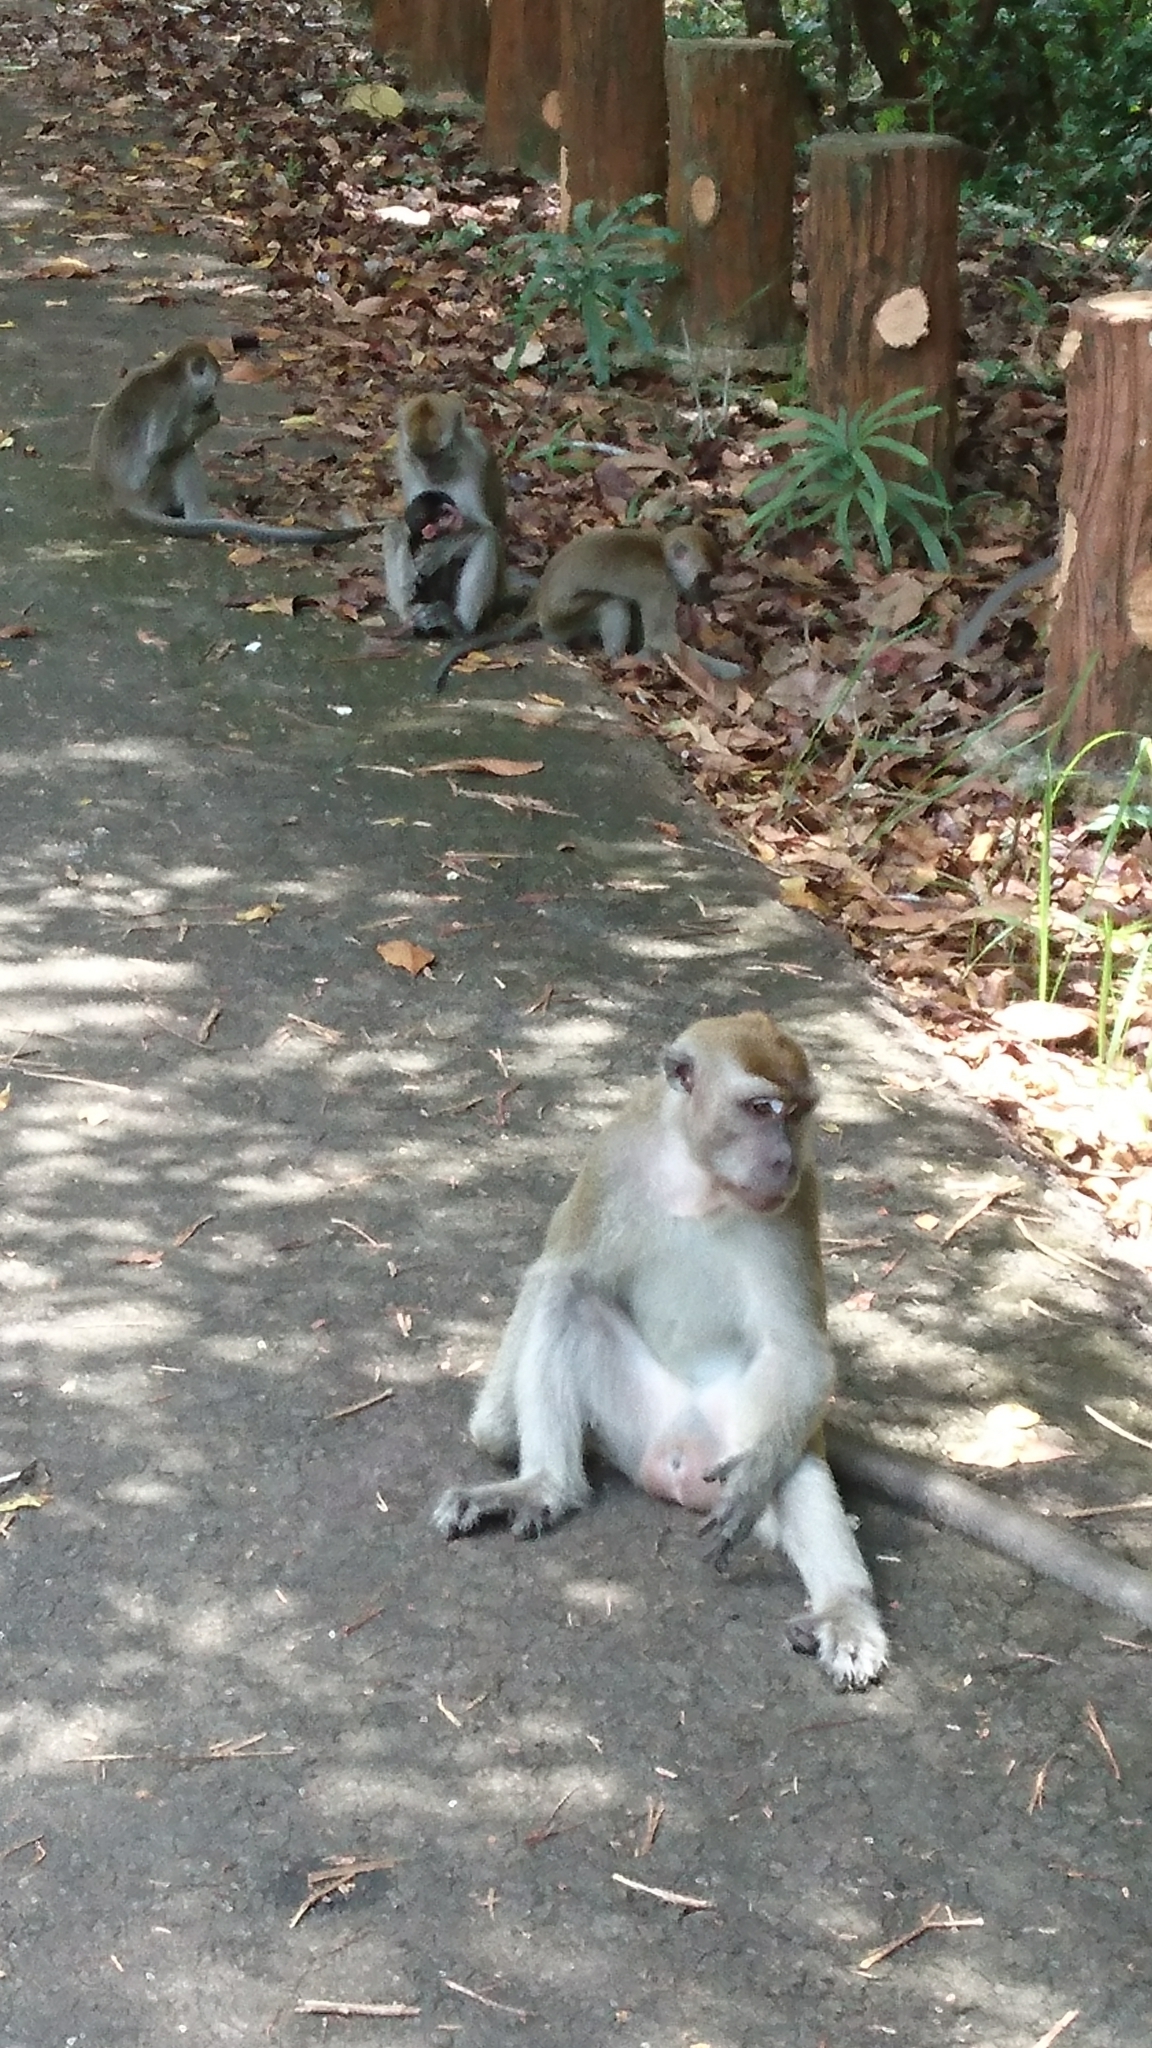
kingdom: Animalia
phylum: Chordata
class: Mammalia
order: Primates
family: Cercopithecidae
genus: Macaca
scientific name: Macaca fascicularis
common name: Crab-eating macaque
